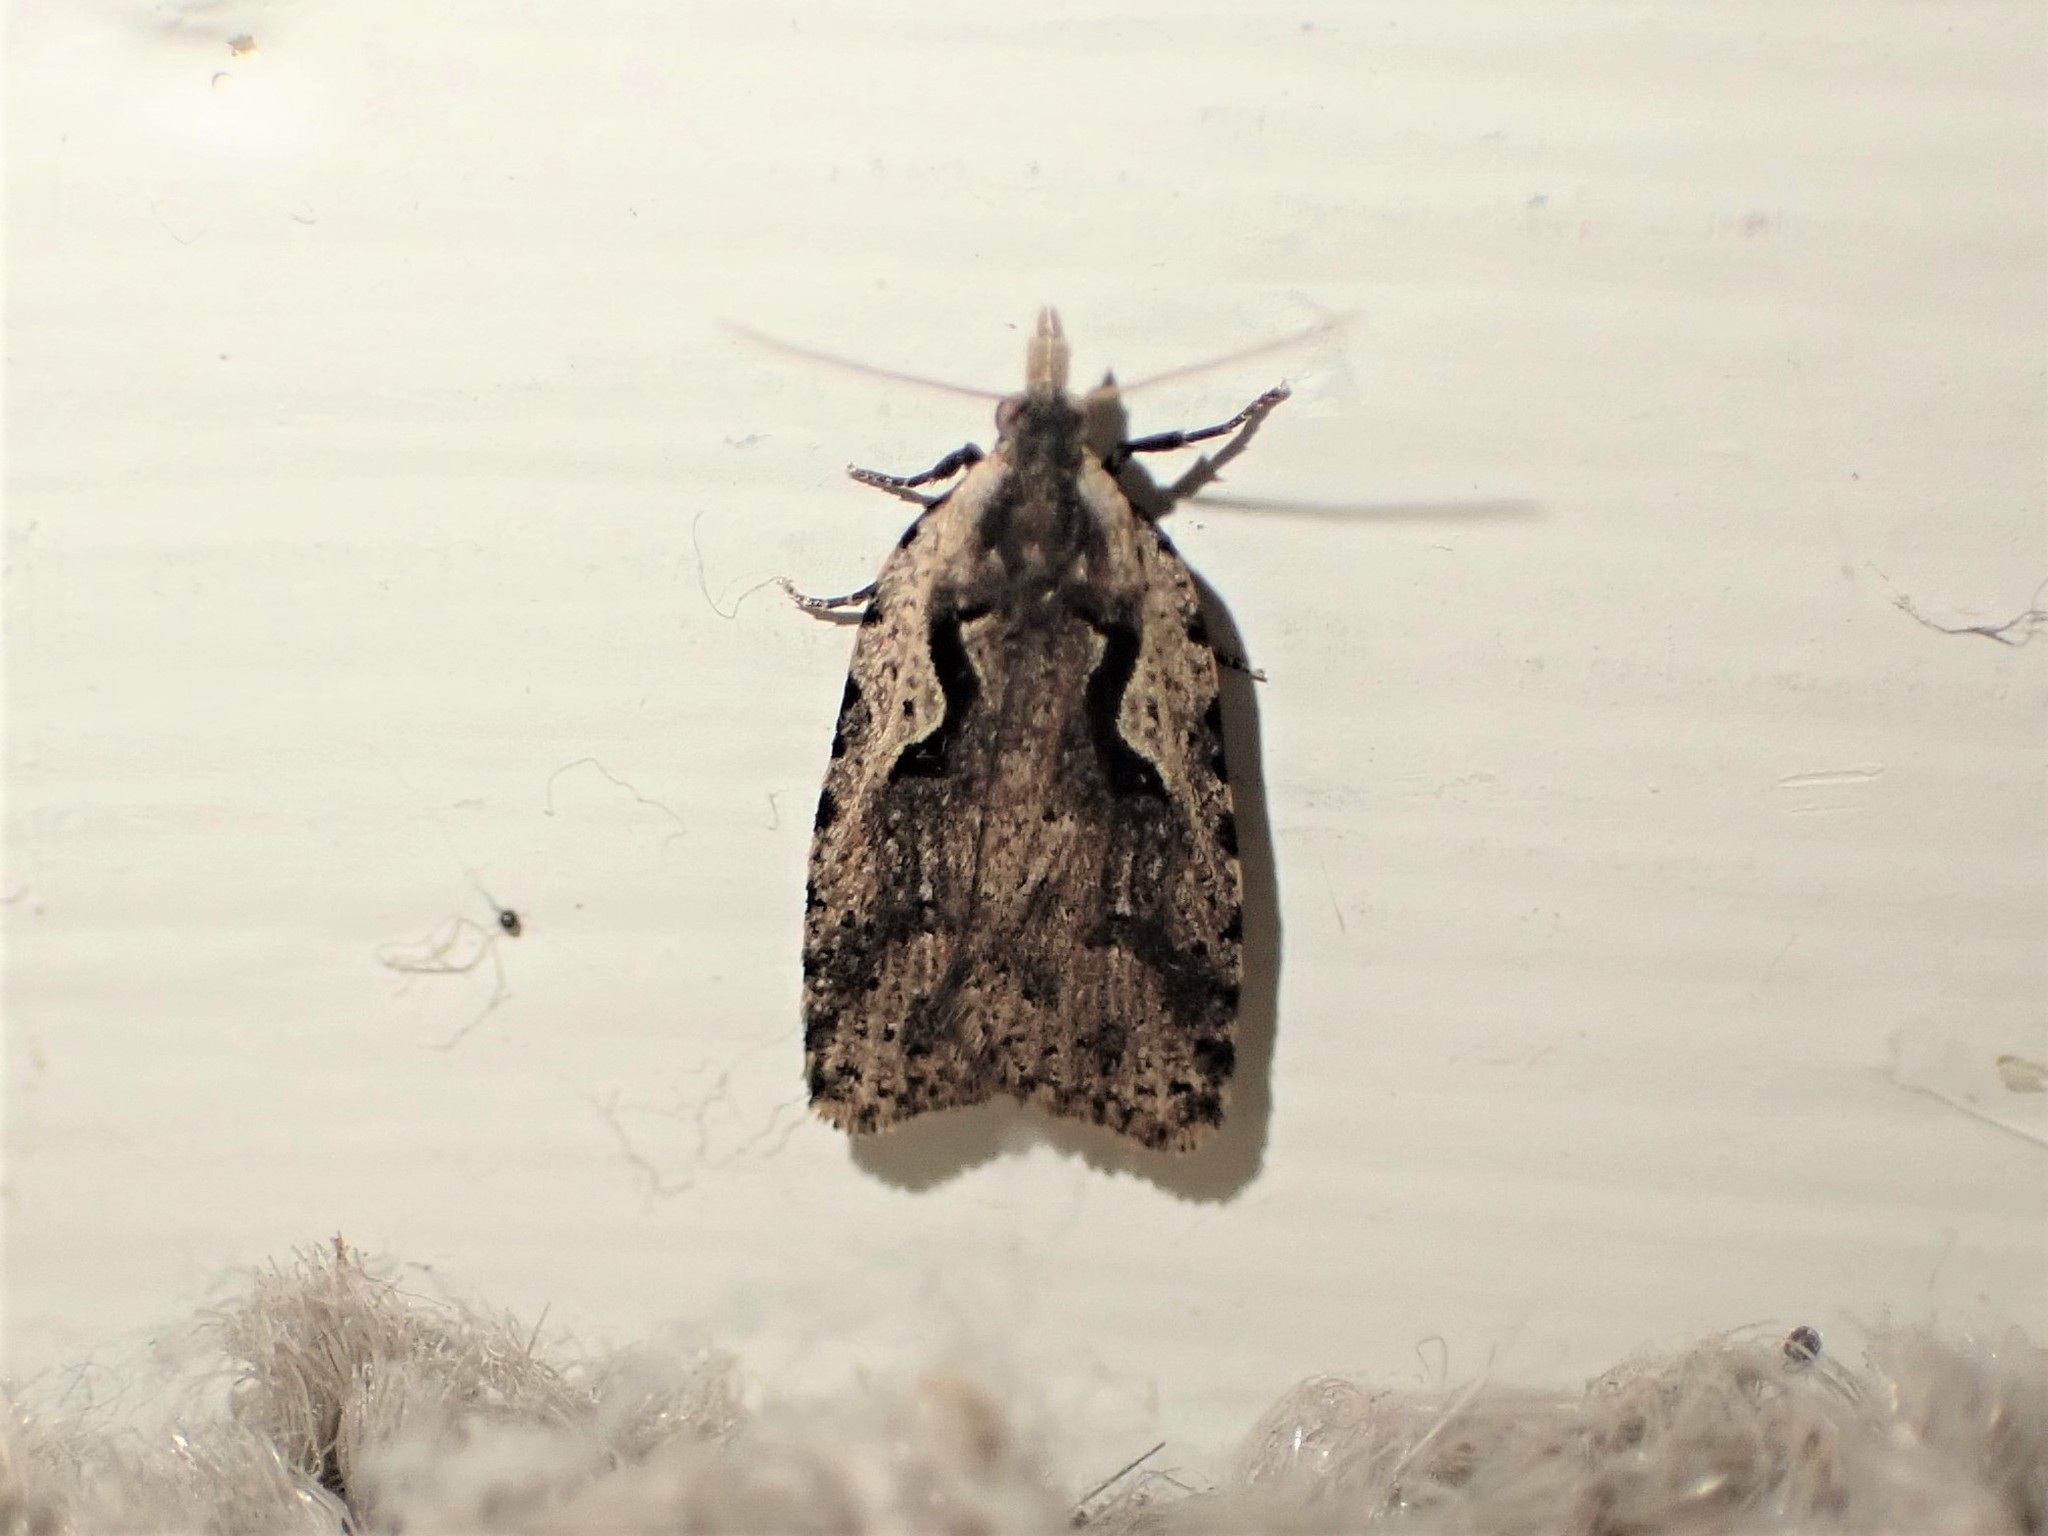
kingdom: Animalia
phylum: Arthropoda
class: Insecta
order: Lepidoptera
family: Tortricidae
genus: Cnephasia
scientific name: Cnephasia jactatana
